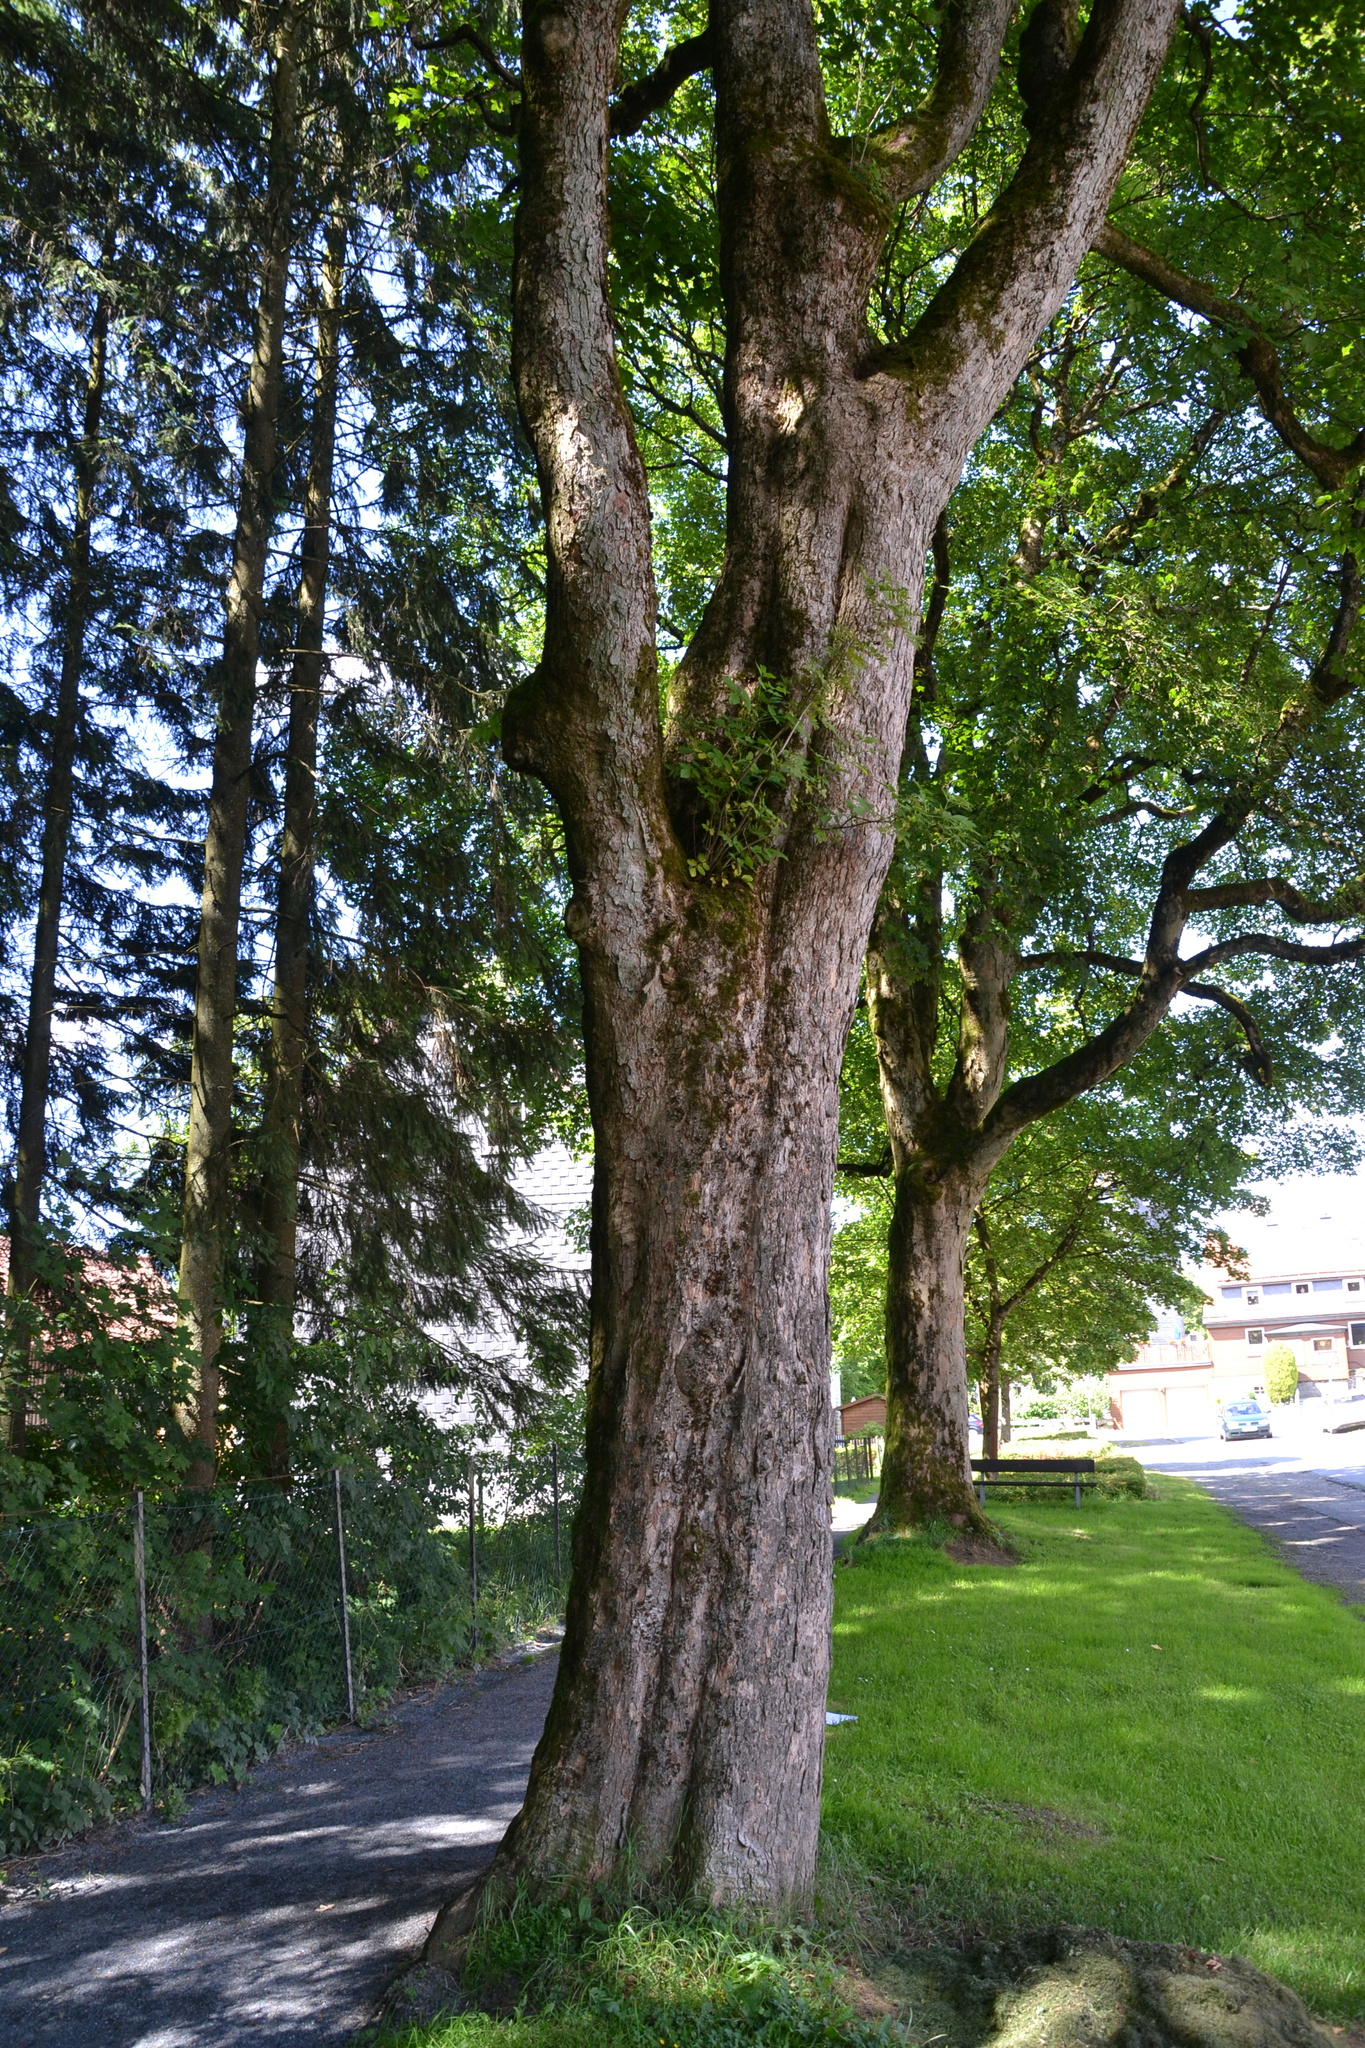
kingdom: Plantae
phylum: Tracheophyta
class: Magnoliopsida
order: Dipsacales
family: Viburnaceae
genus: Sambucus
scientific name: Sambucus nigra
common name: Elder
